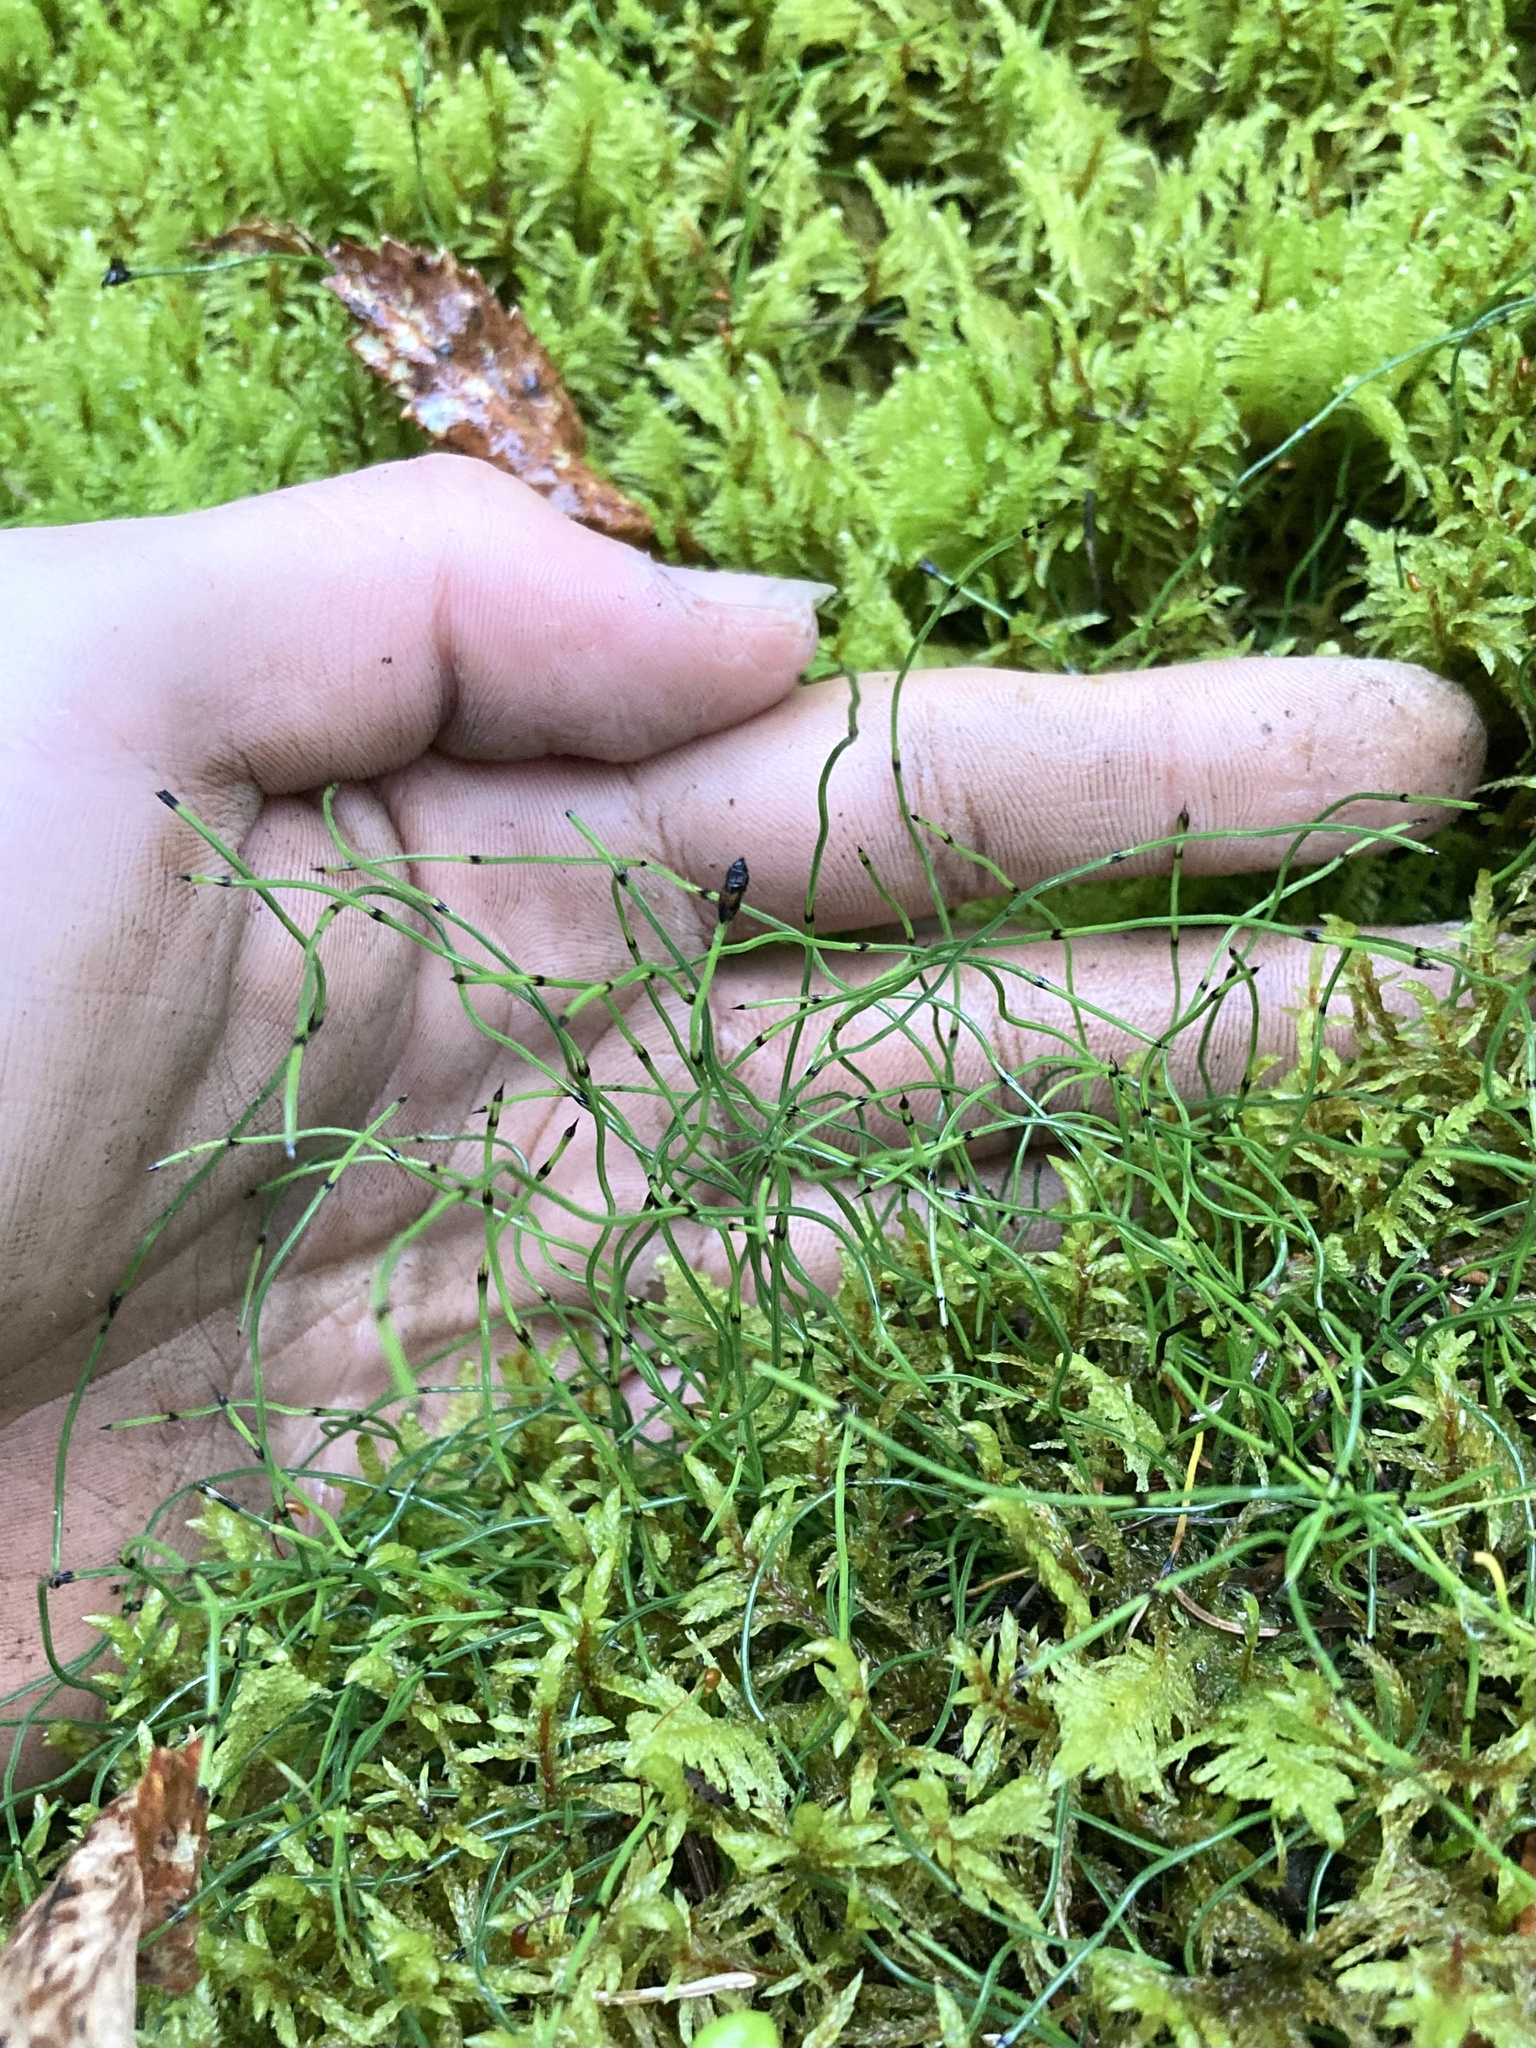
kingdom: Plantae
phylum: Tracheophyta
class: Polypodiopsida
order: Equisetales
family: Equisetaceae
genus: Equisetum
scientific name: Equisetum scirpoides
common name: Delicate horsetail
